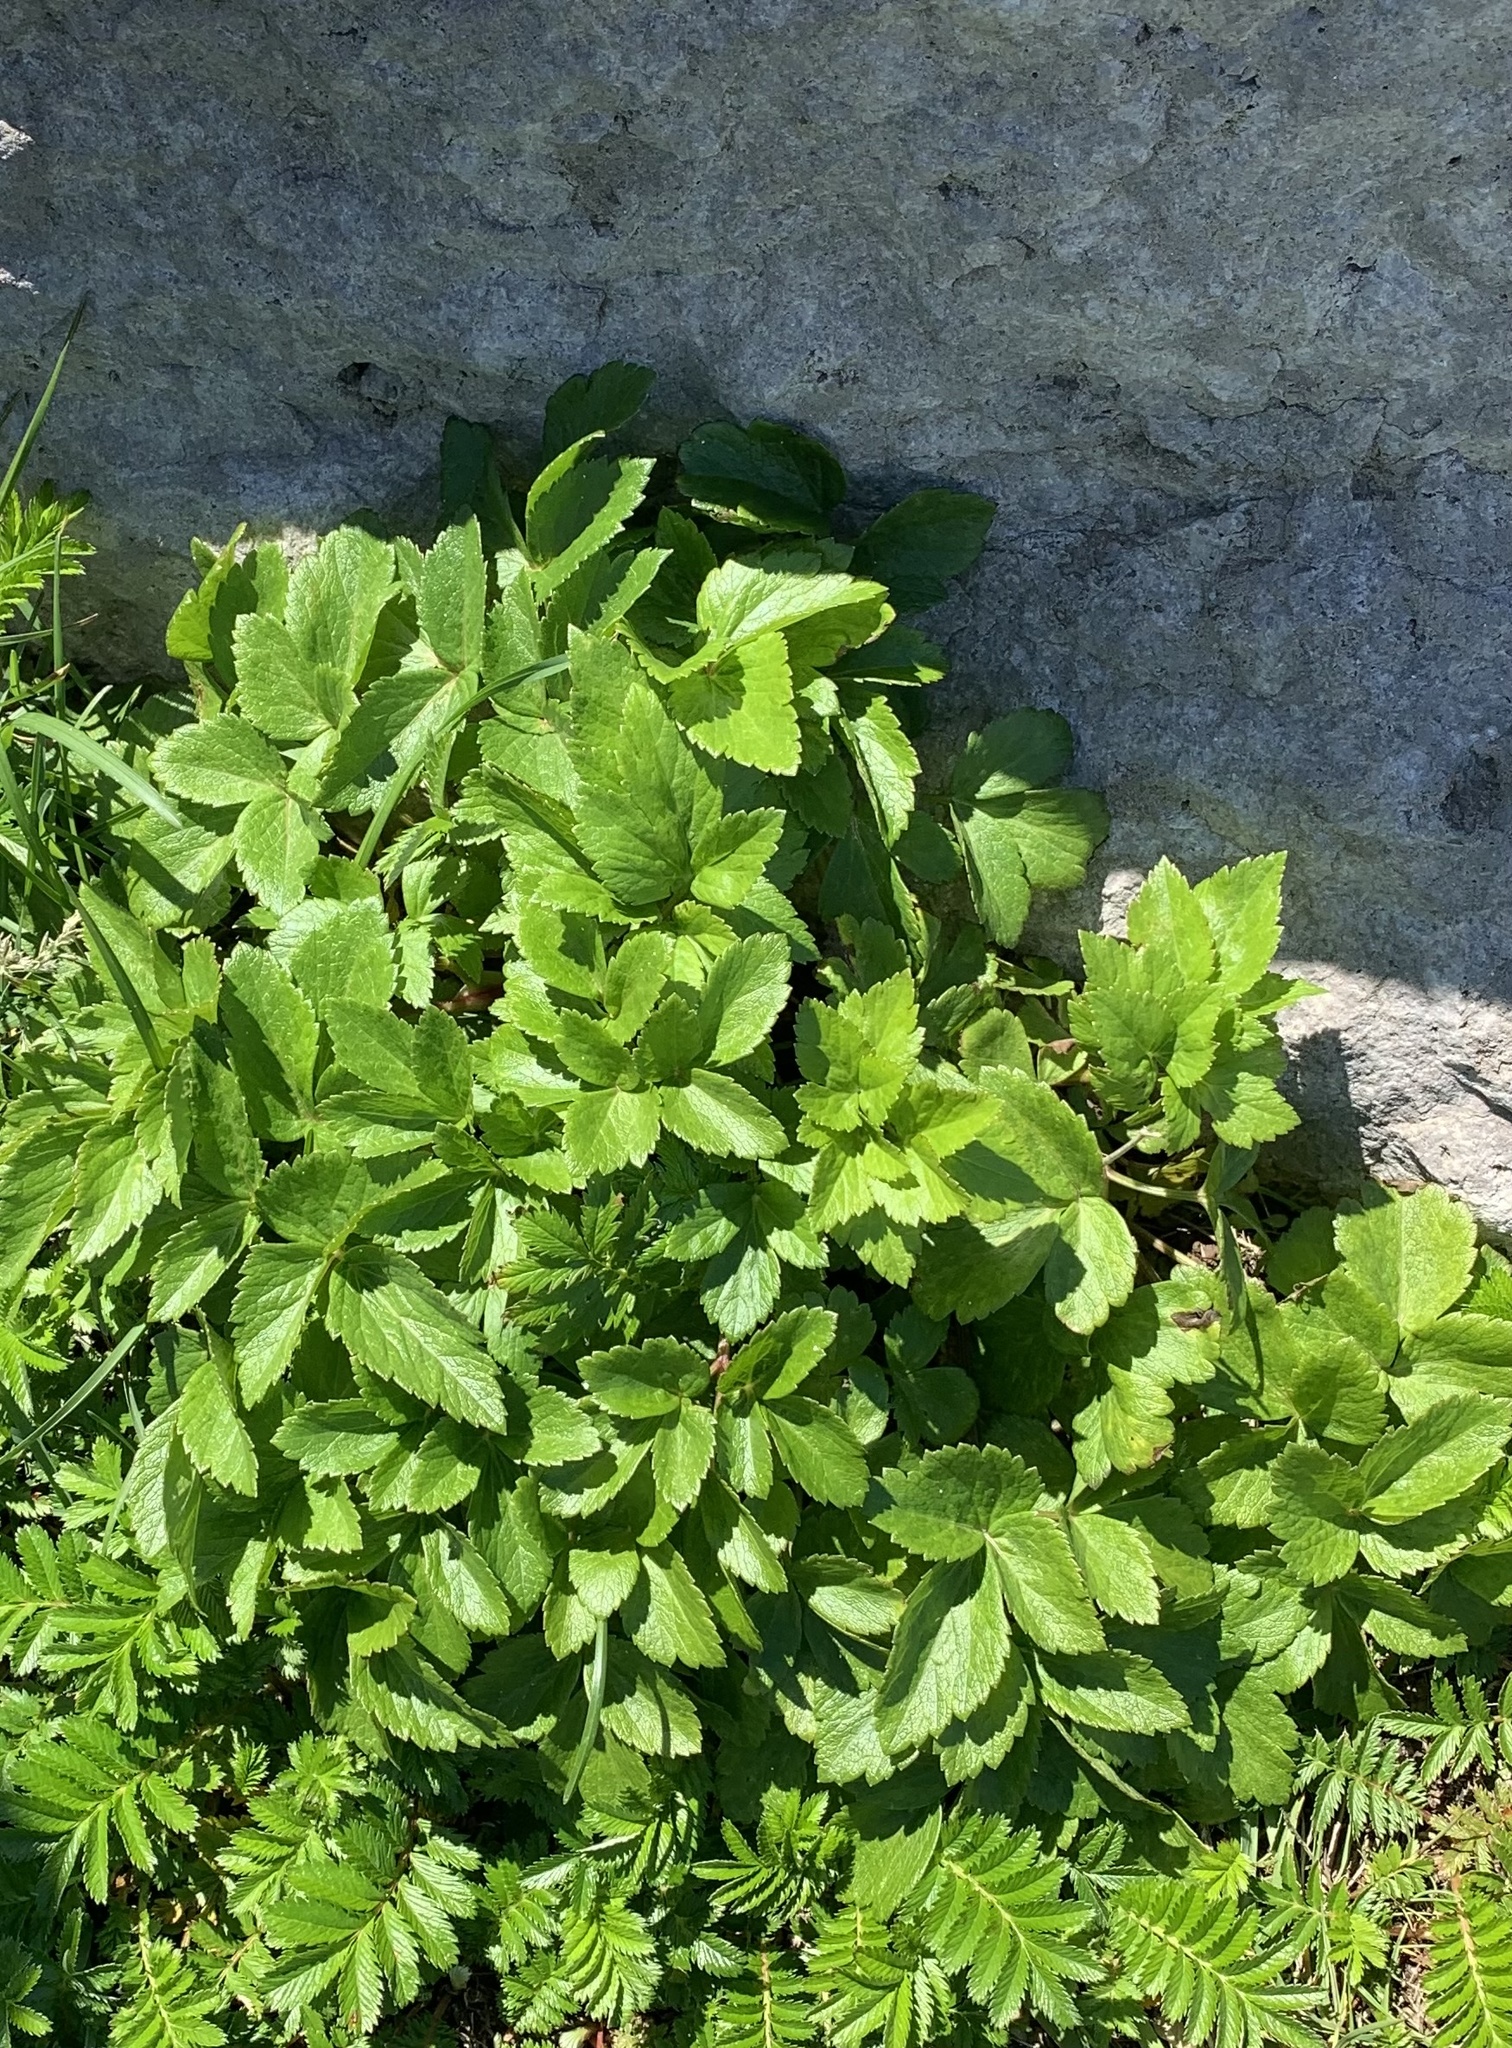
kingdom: Plantae
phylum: Tracheophyta
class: Magnoliopsida
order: Apiales
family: Apiaceae
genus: Ligusticum
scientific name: Ligusticum scothicum
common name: Beach lovage
